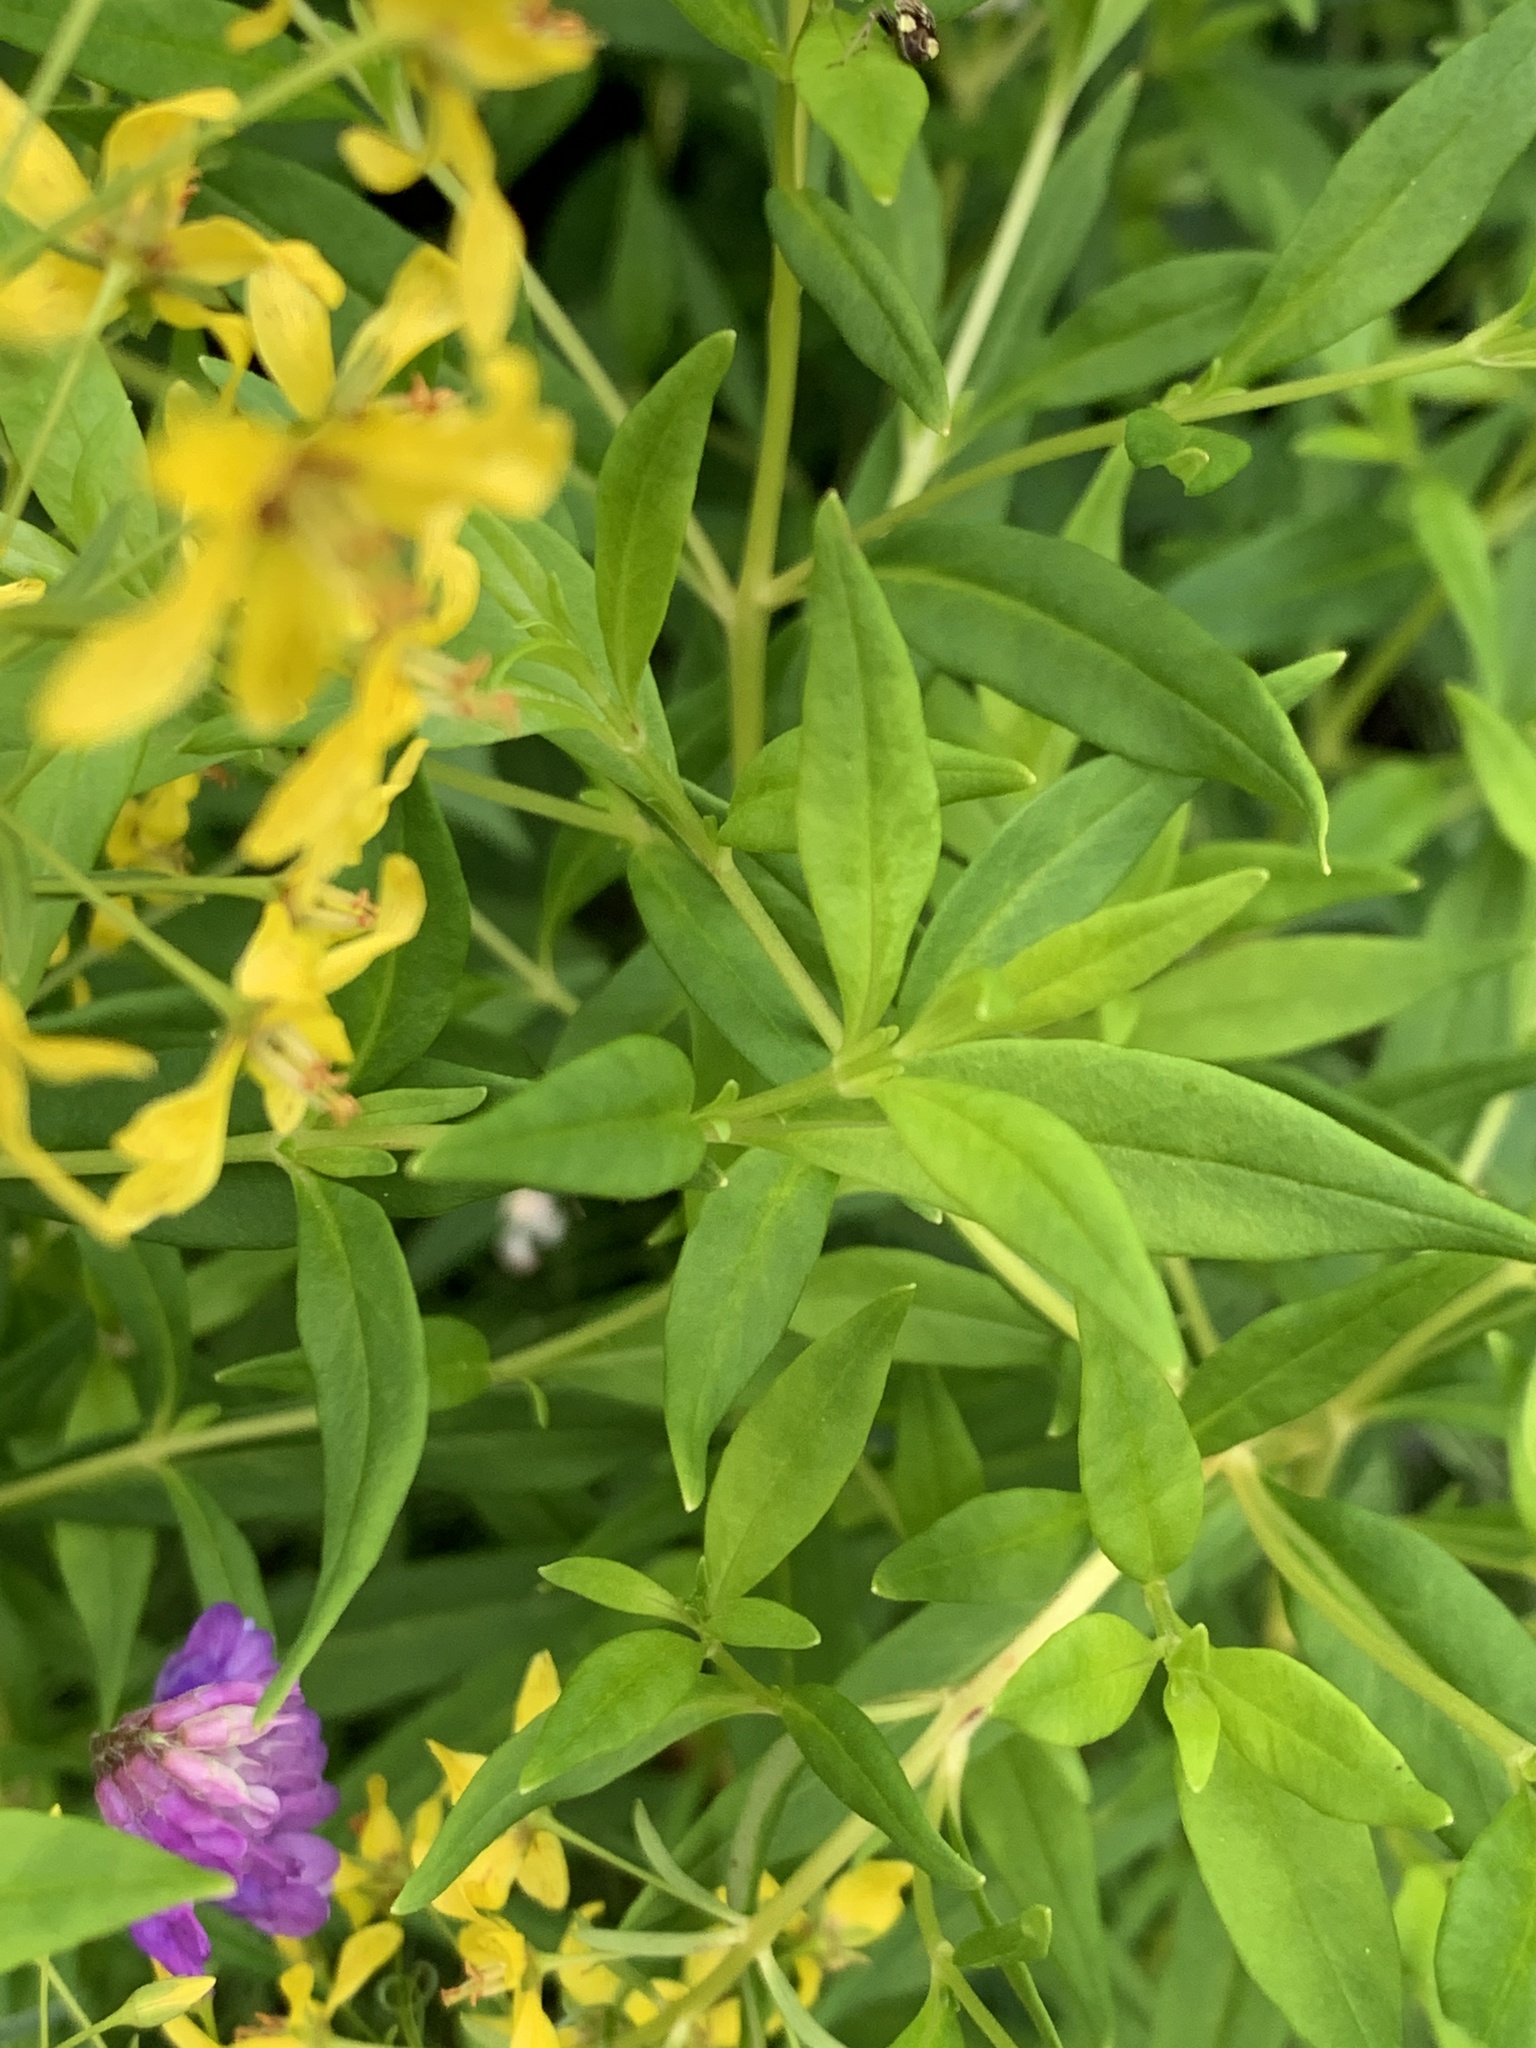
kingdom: Plantae
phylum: Tracheophyta
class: Magnoliopsida
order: Ericales
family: Primulaceae
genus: Lysimachia
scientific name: Lysimachia terrestris
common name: Lake loosestrife
